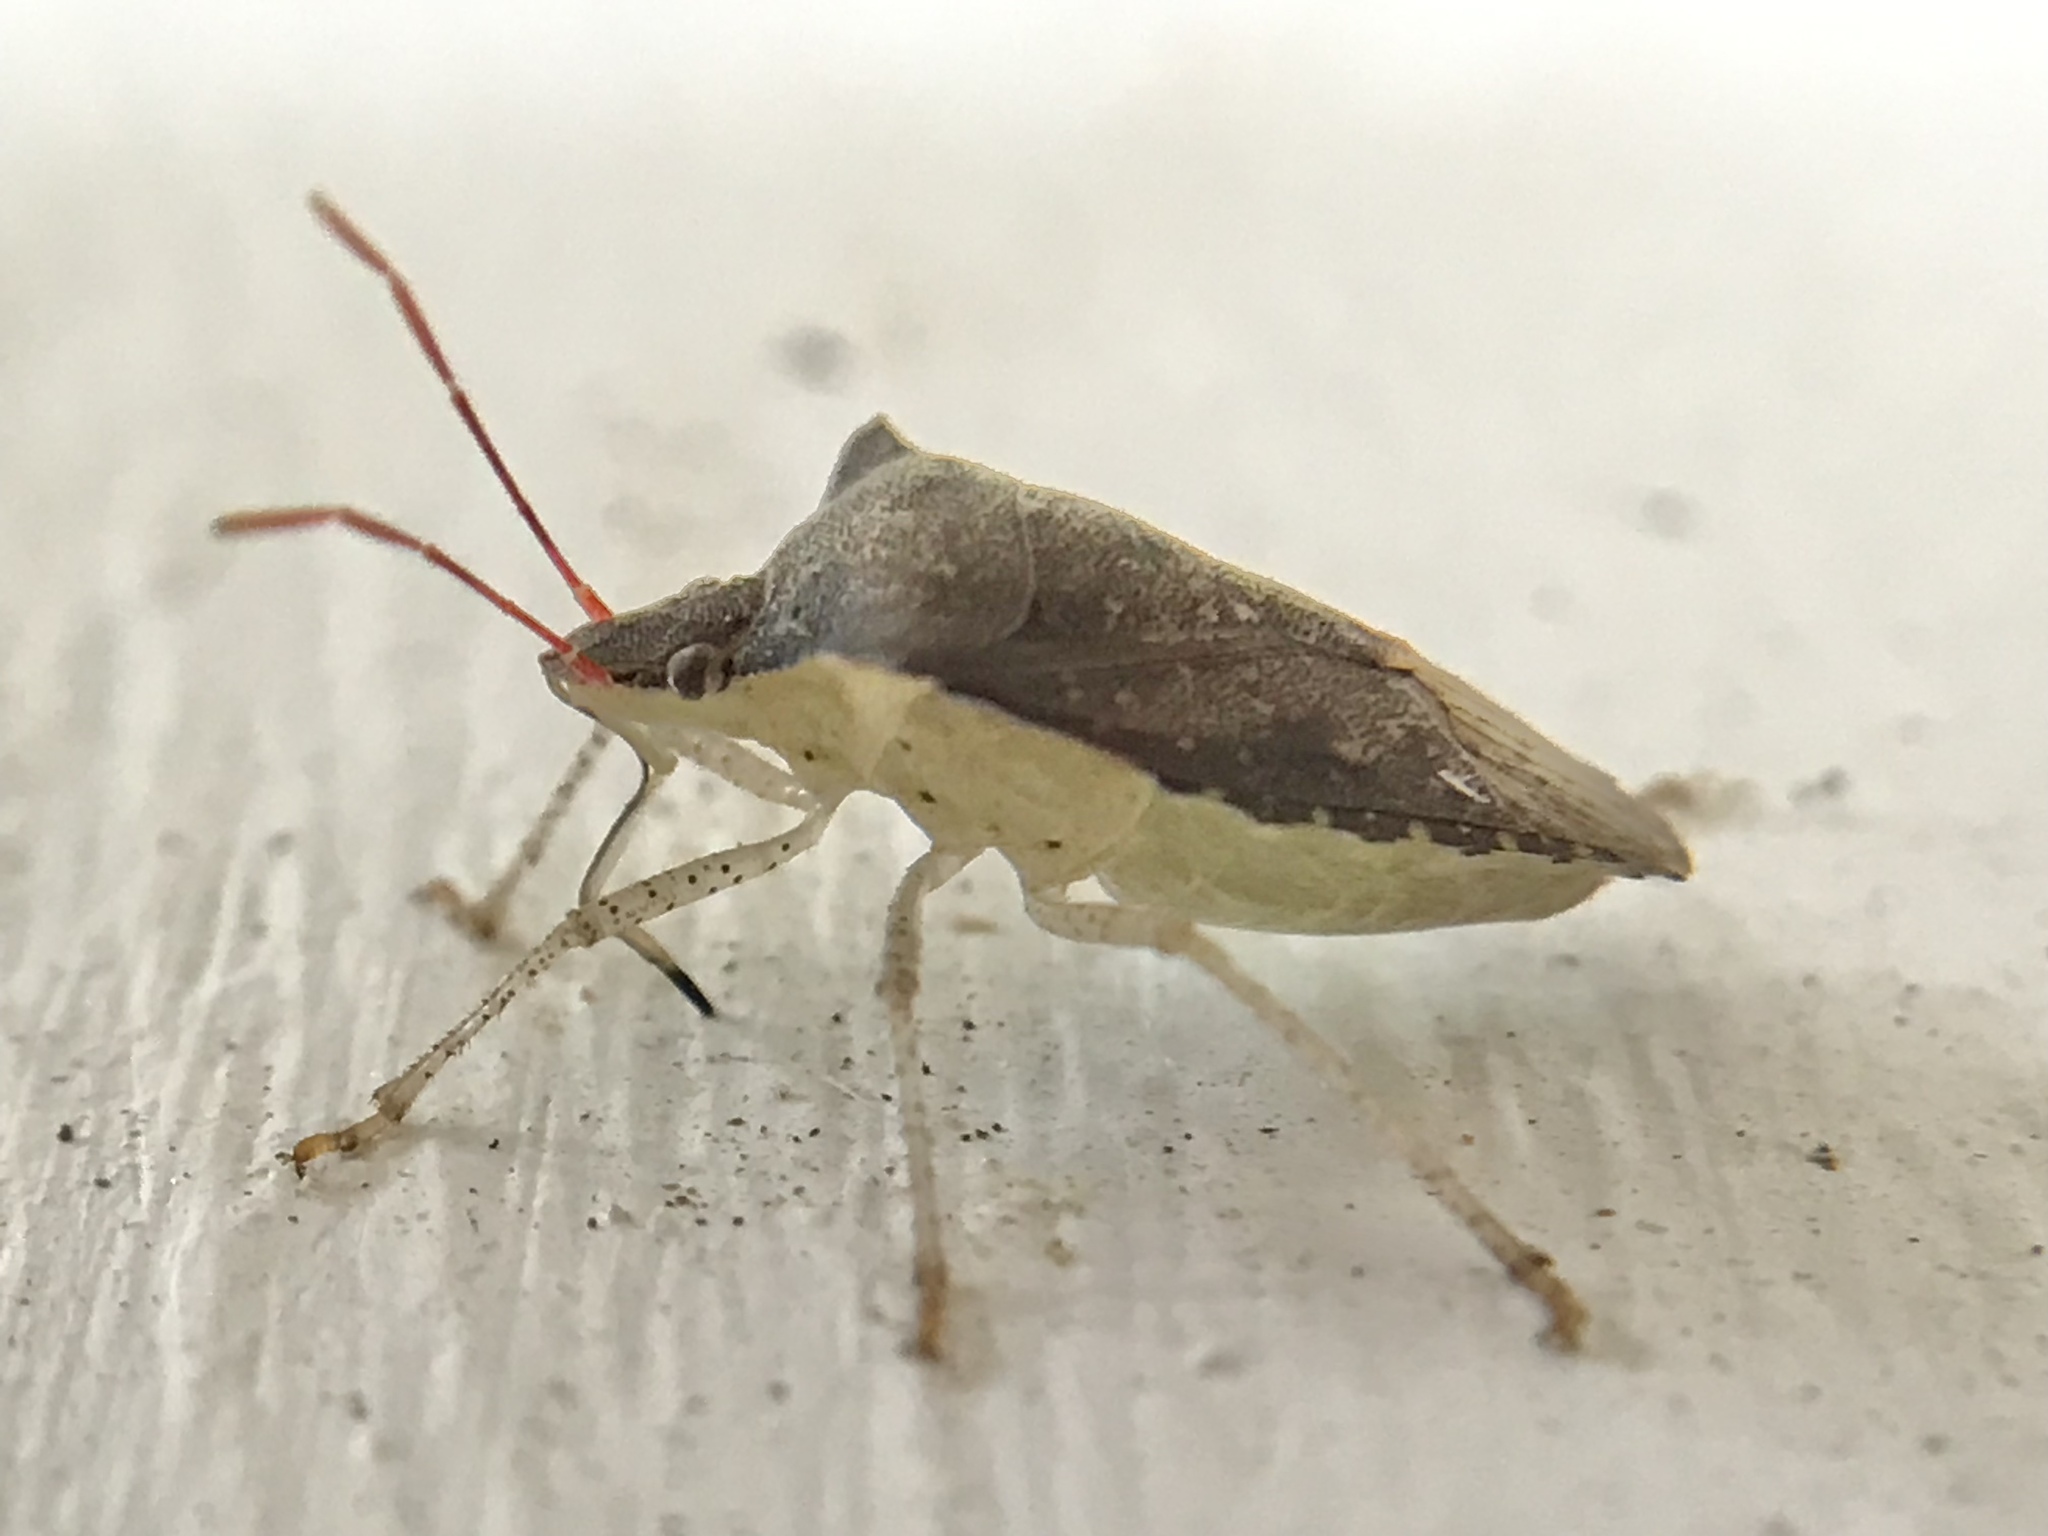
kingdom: Animalia
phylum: Arthropoda
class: Insecta
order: Hemiptera
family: Pentatomidae
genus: Euschistus
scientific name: Euschistus tristigmus
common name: Dusky stink bug
